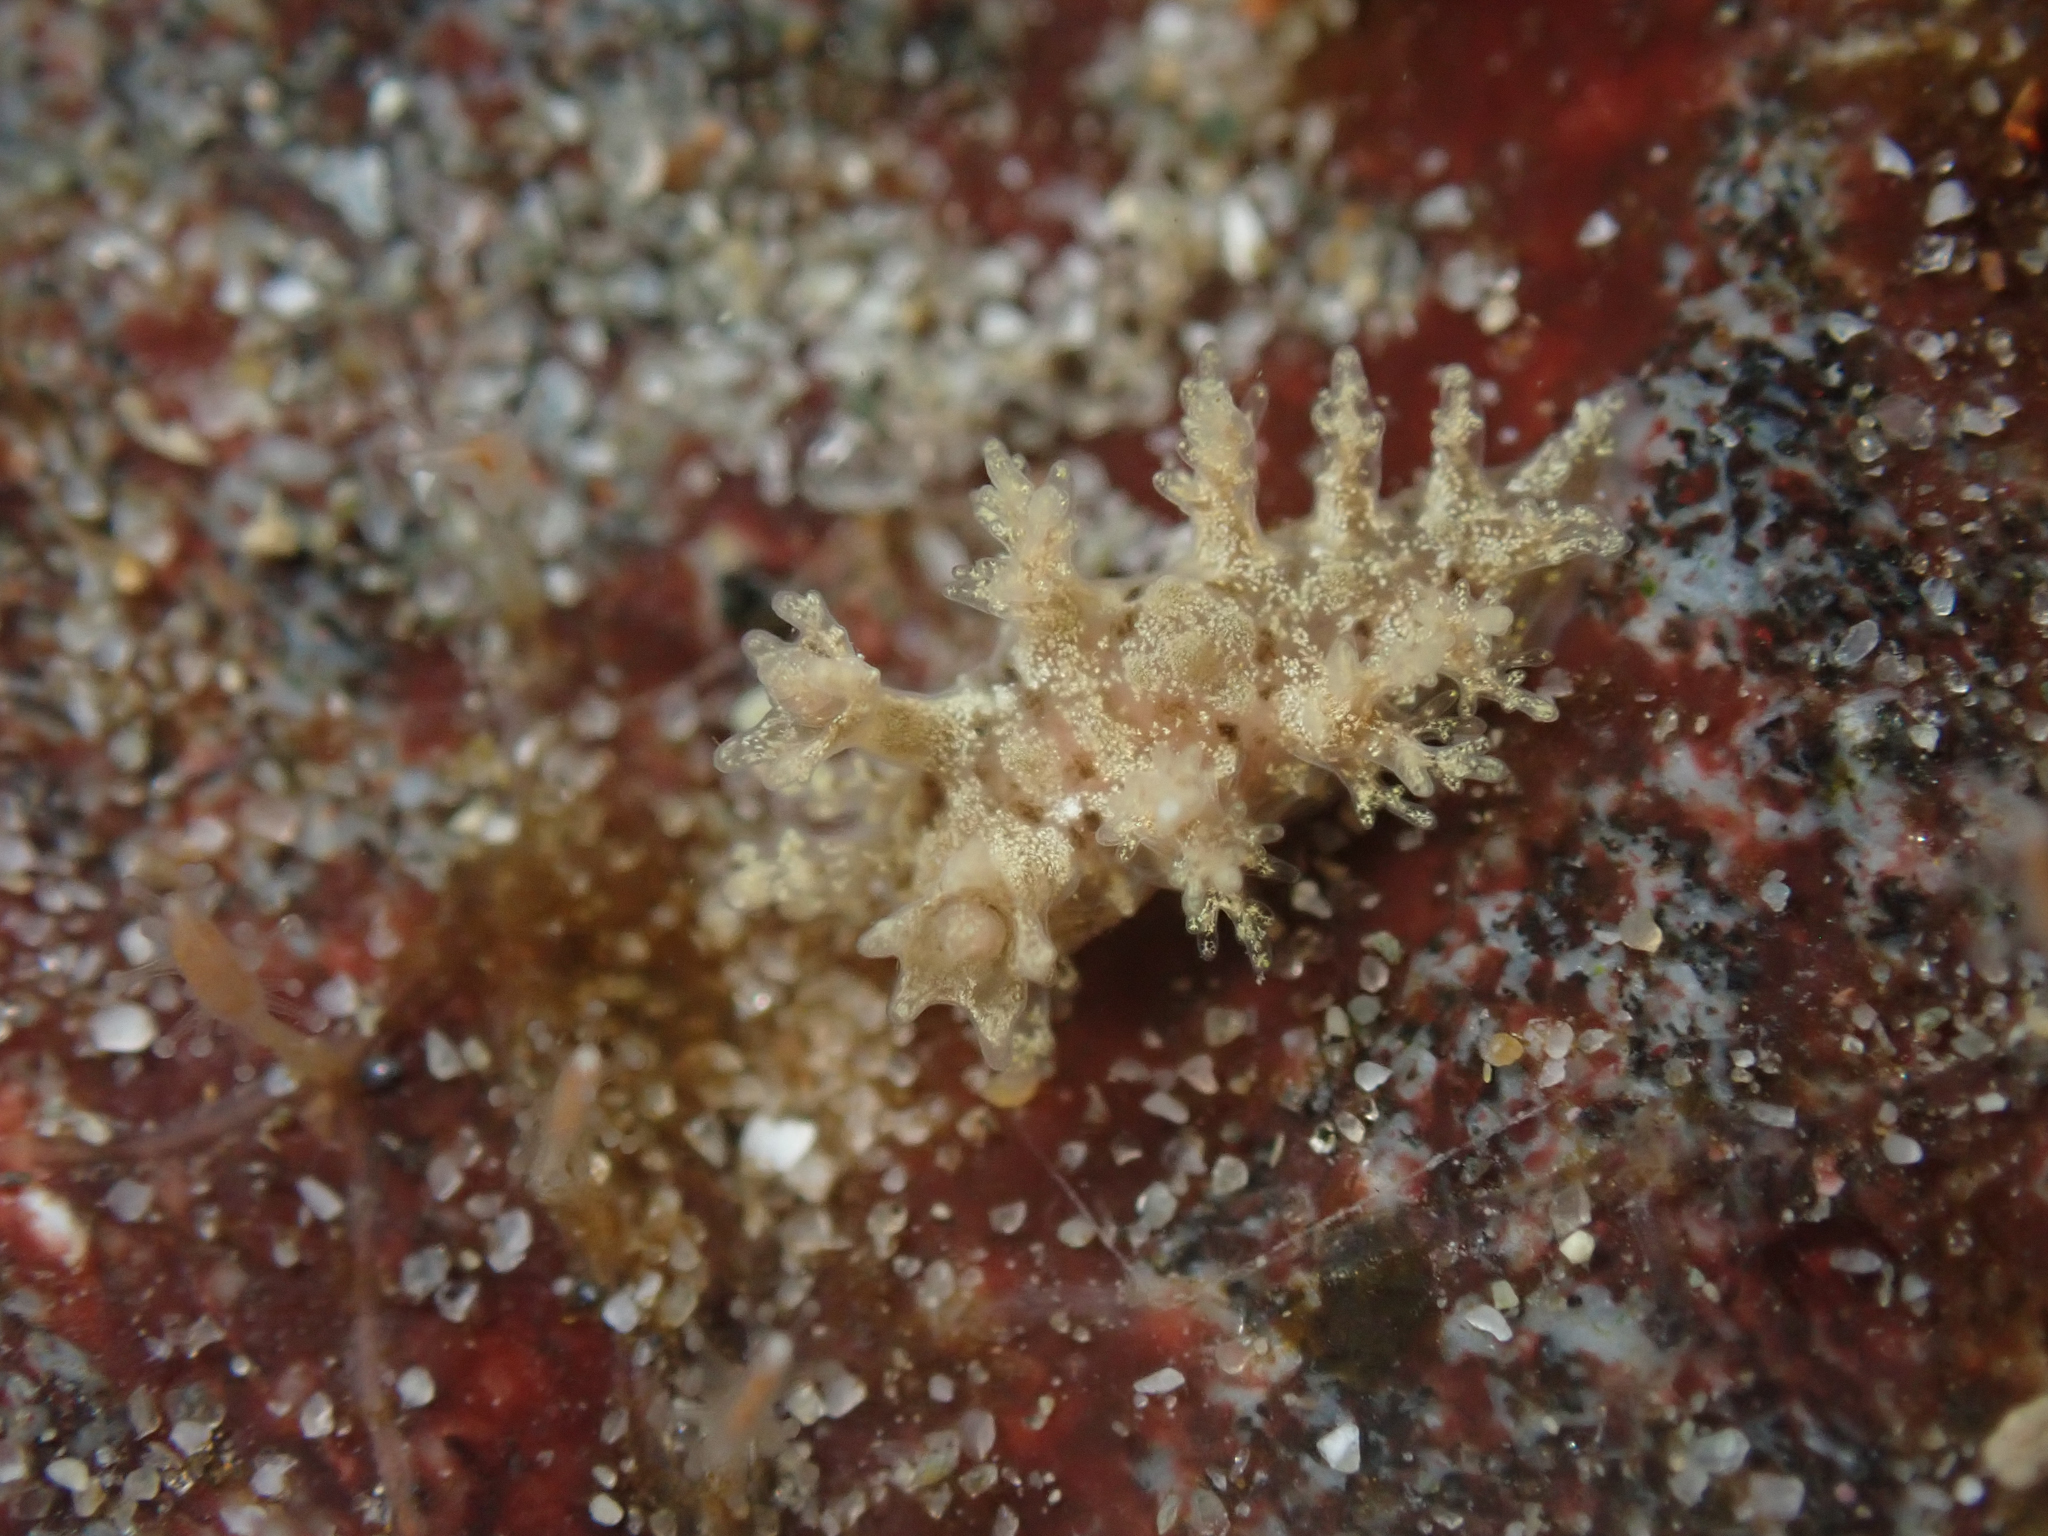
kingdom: Animalia
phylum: Mollusca
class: Gastropoda
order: Nudibranchia
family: Dendronotidae
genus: Dendronotus
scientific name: Dendronotus venustus
